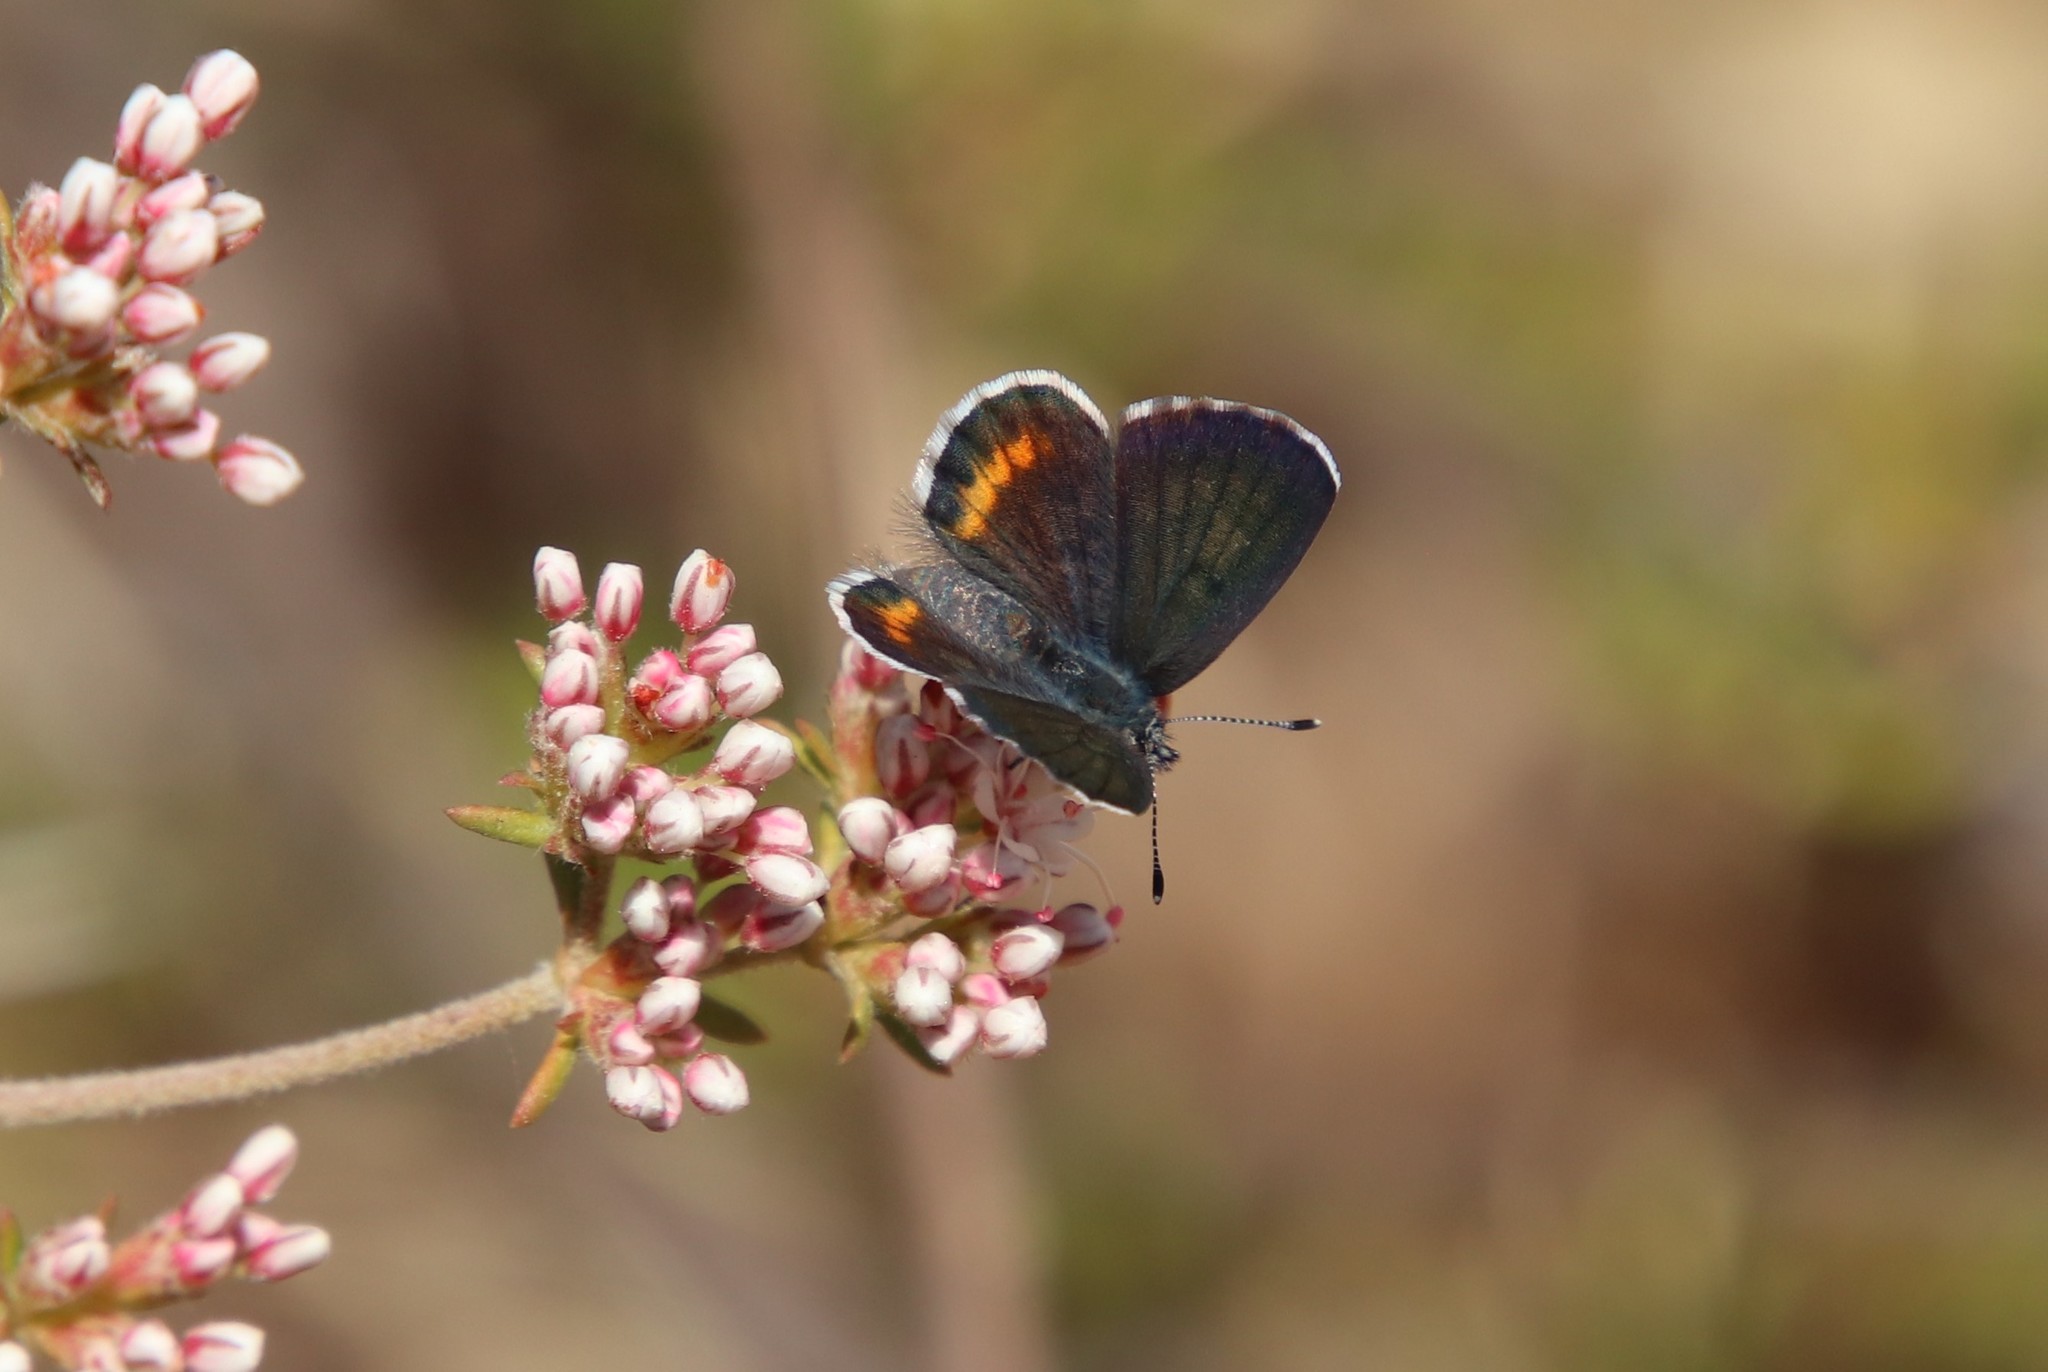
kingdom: Animalia
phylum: Arthropoda
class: Insecta
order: Lepidoptera
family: Lycaenidae
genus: Philotes
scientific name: Philotes bernardino
